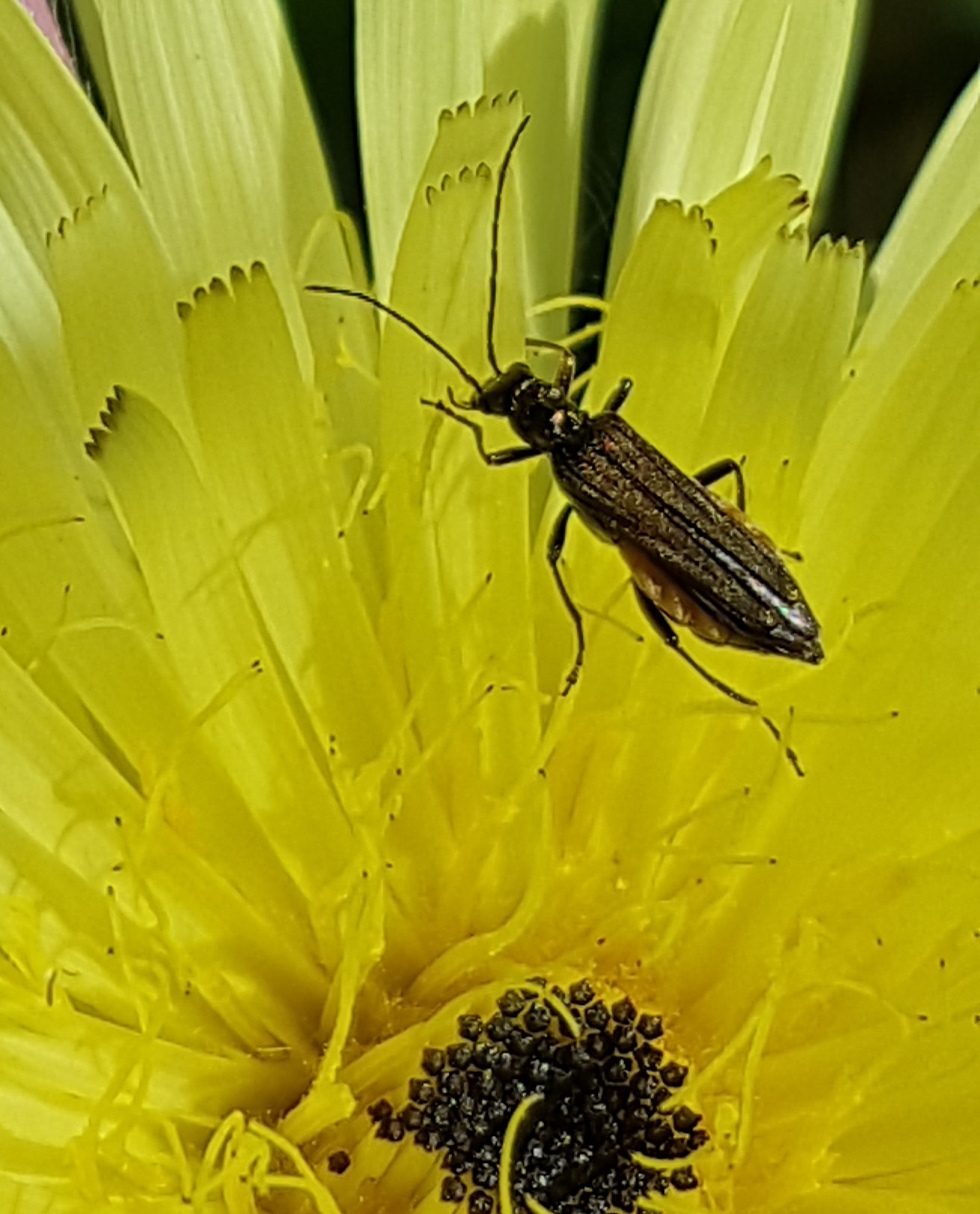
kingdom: Animalia
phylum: Arthropoda
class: Insecta
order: Coleoptera
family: Oedemeridae
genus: Oedemera
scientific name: Oedemera flavipes
